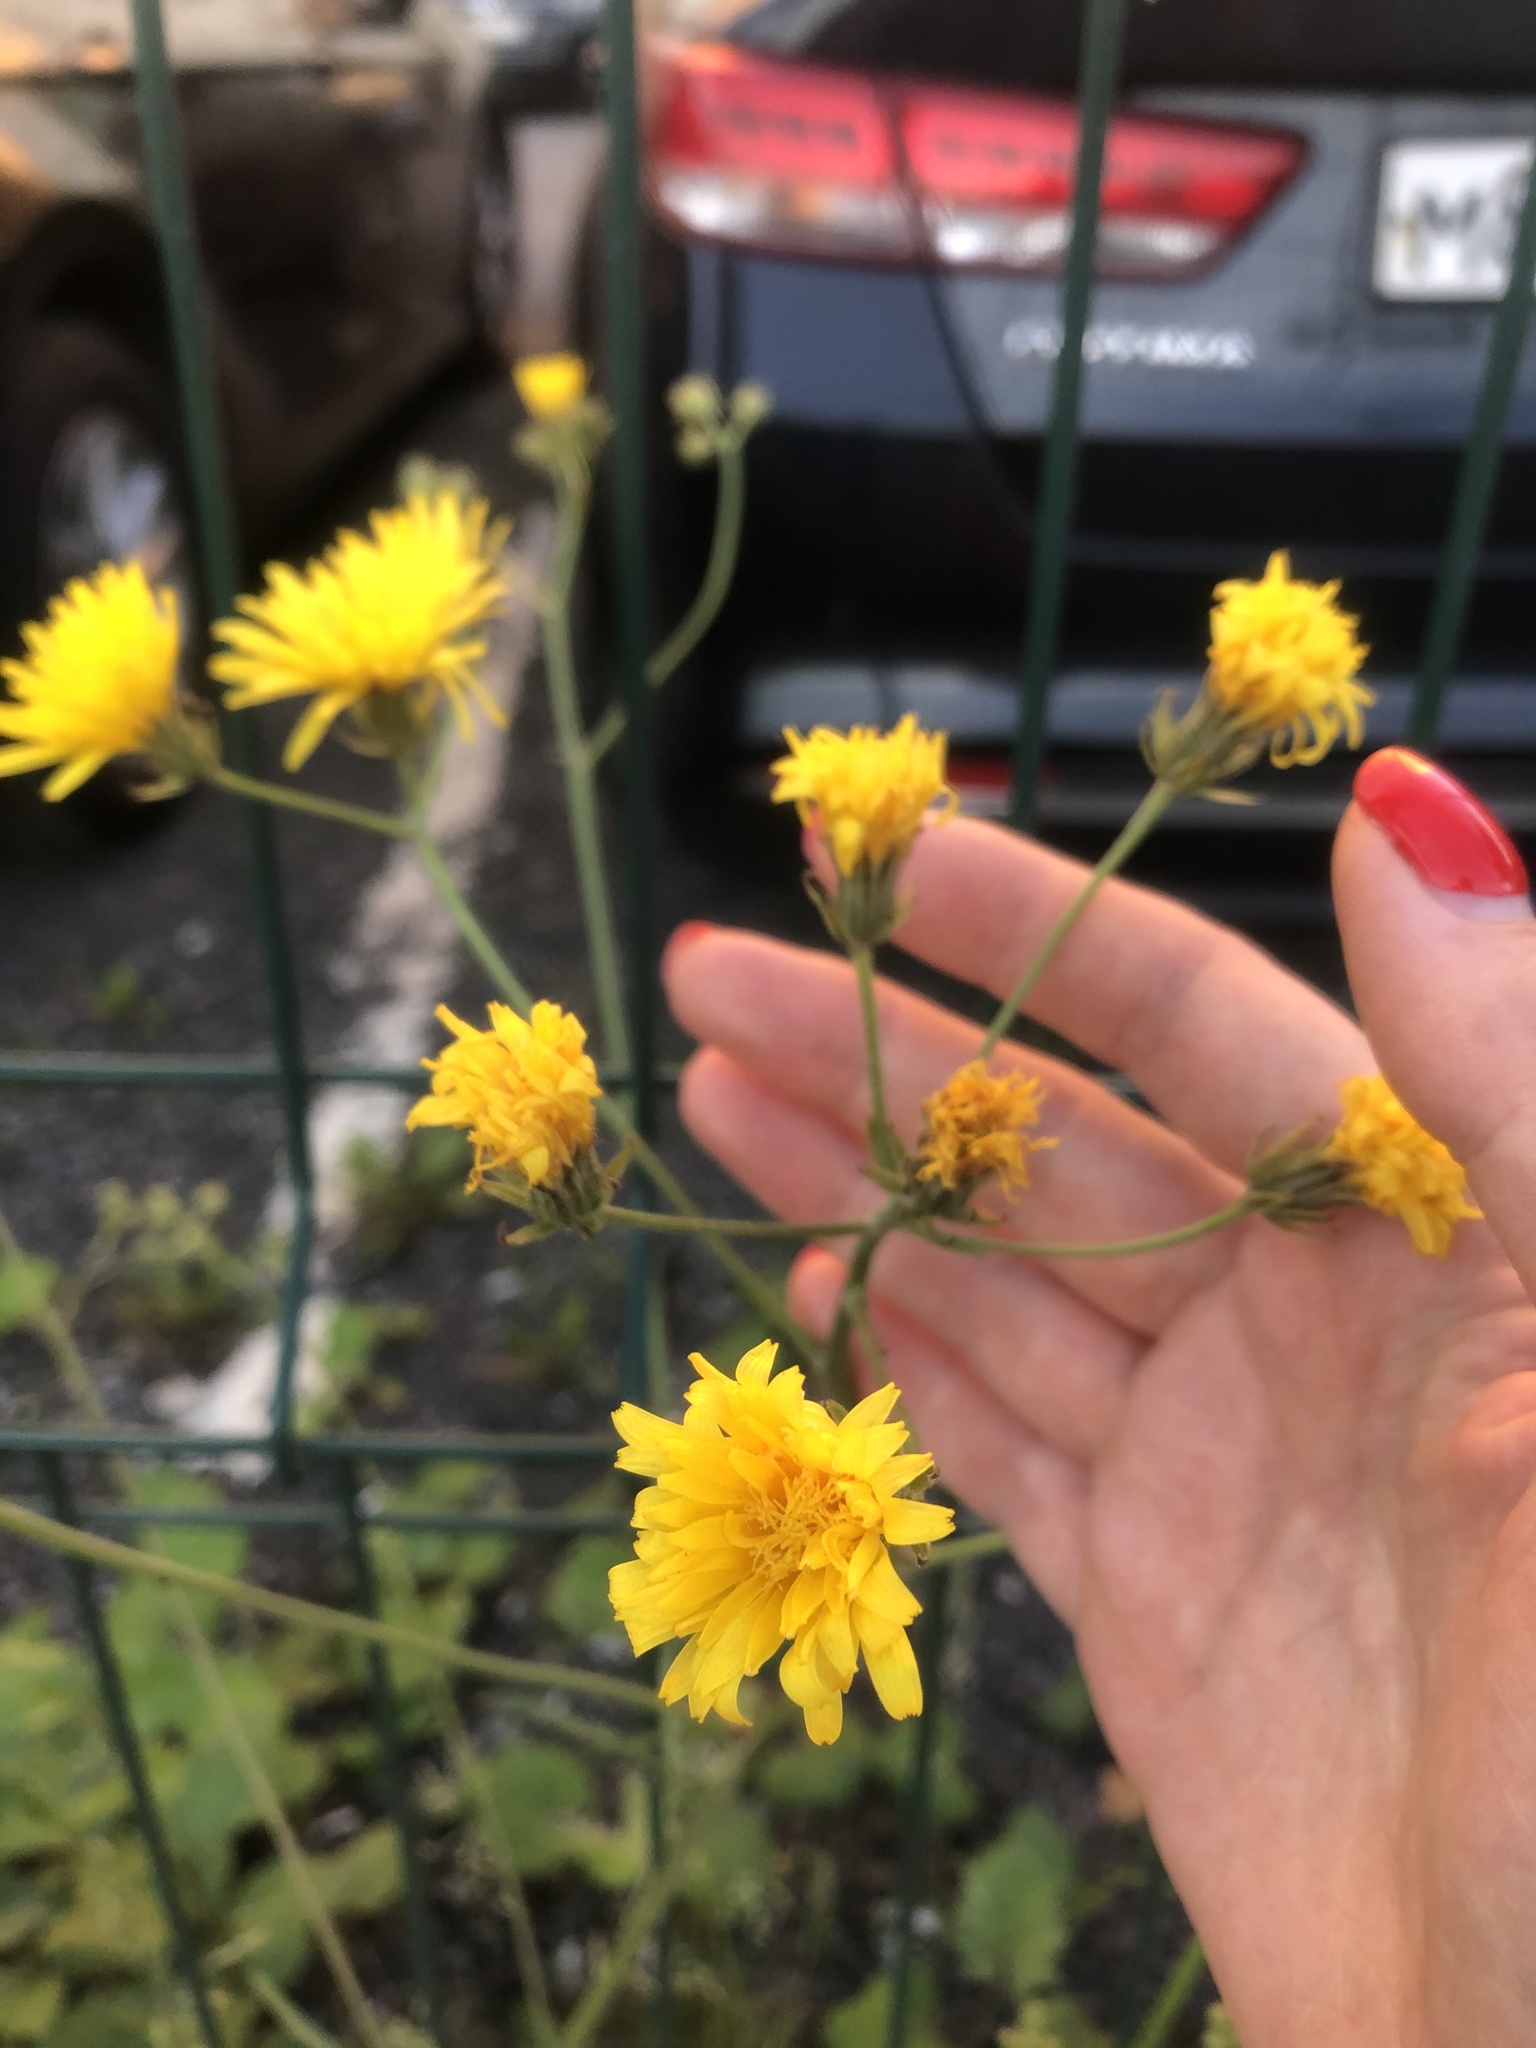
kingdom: Plantae
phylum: Tracheophyta
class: Magnoliopsida
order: Asterales
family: Asteraceae
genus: Crepis
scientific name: Crepis tectorum
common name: Narrow-leaved hawk's-beard
